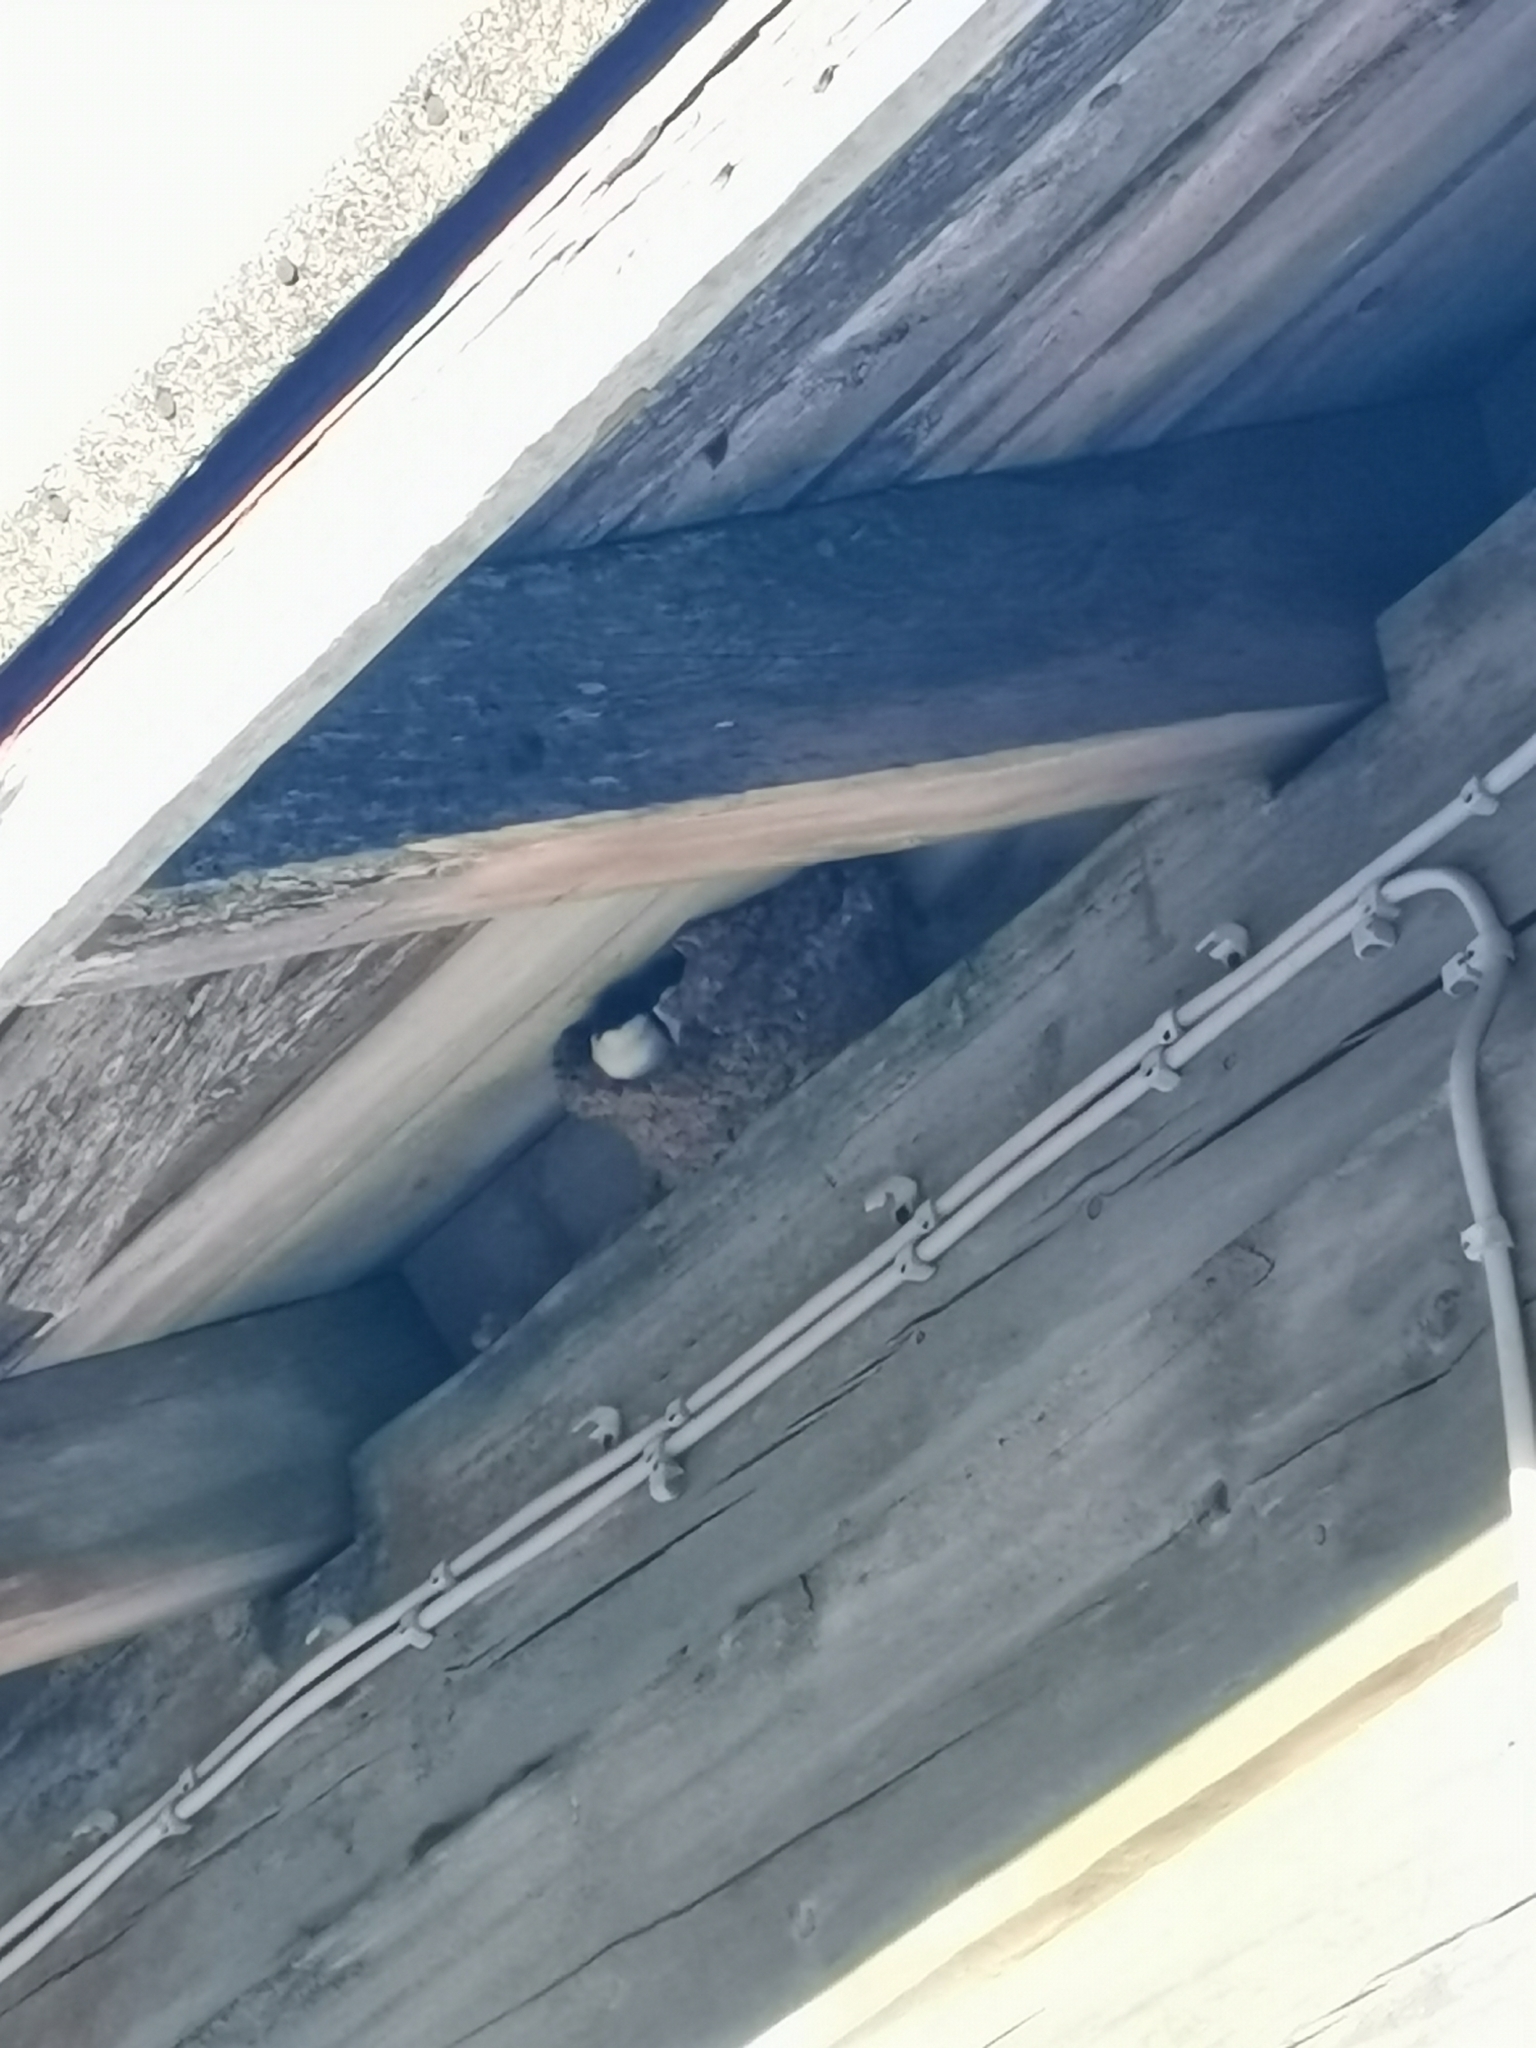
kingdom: Animalia
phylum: Chordata
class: Aves
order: Passeriformes
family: Hirundinidae
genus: Delichon
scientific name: Delichon urbicum
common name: Common house martin
